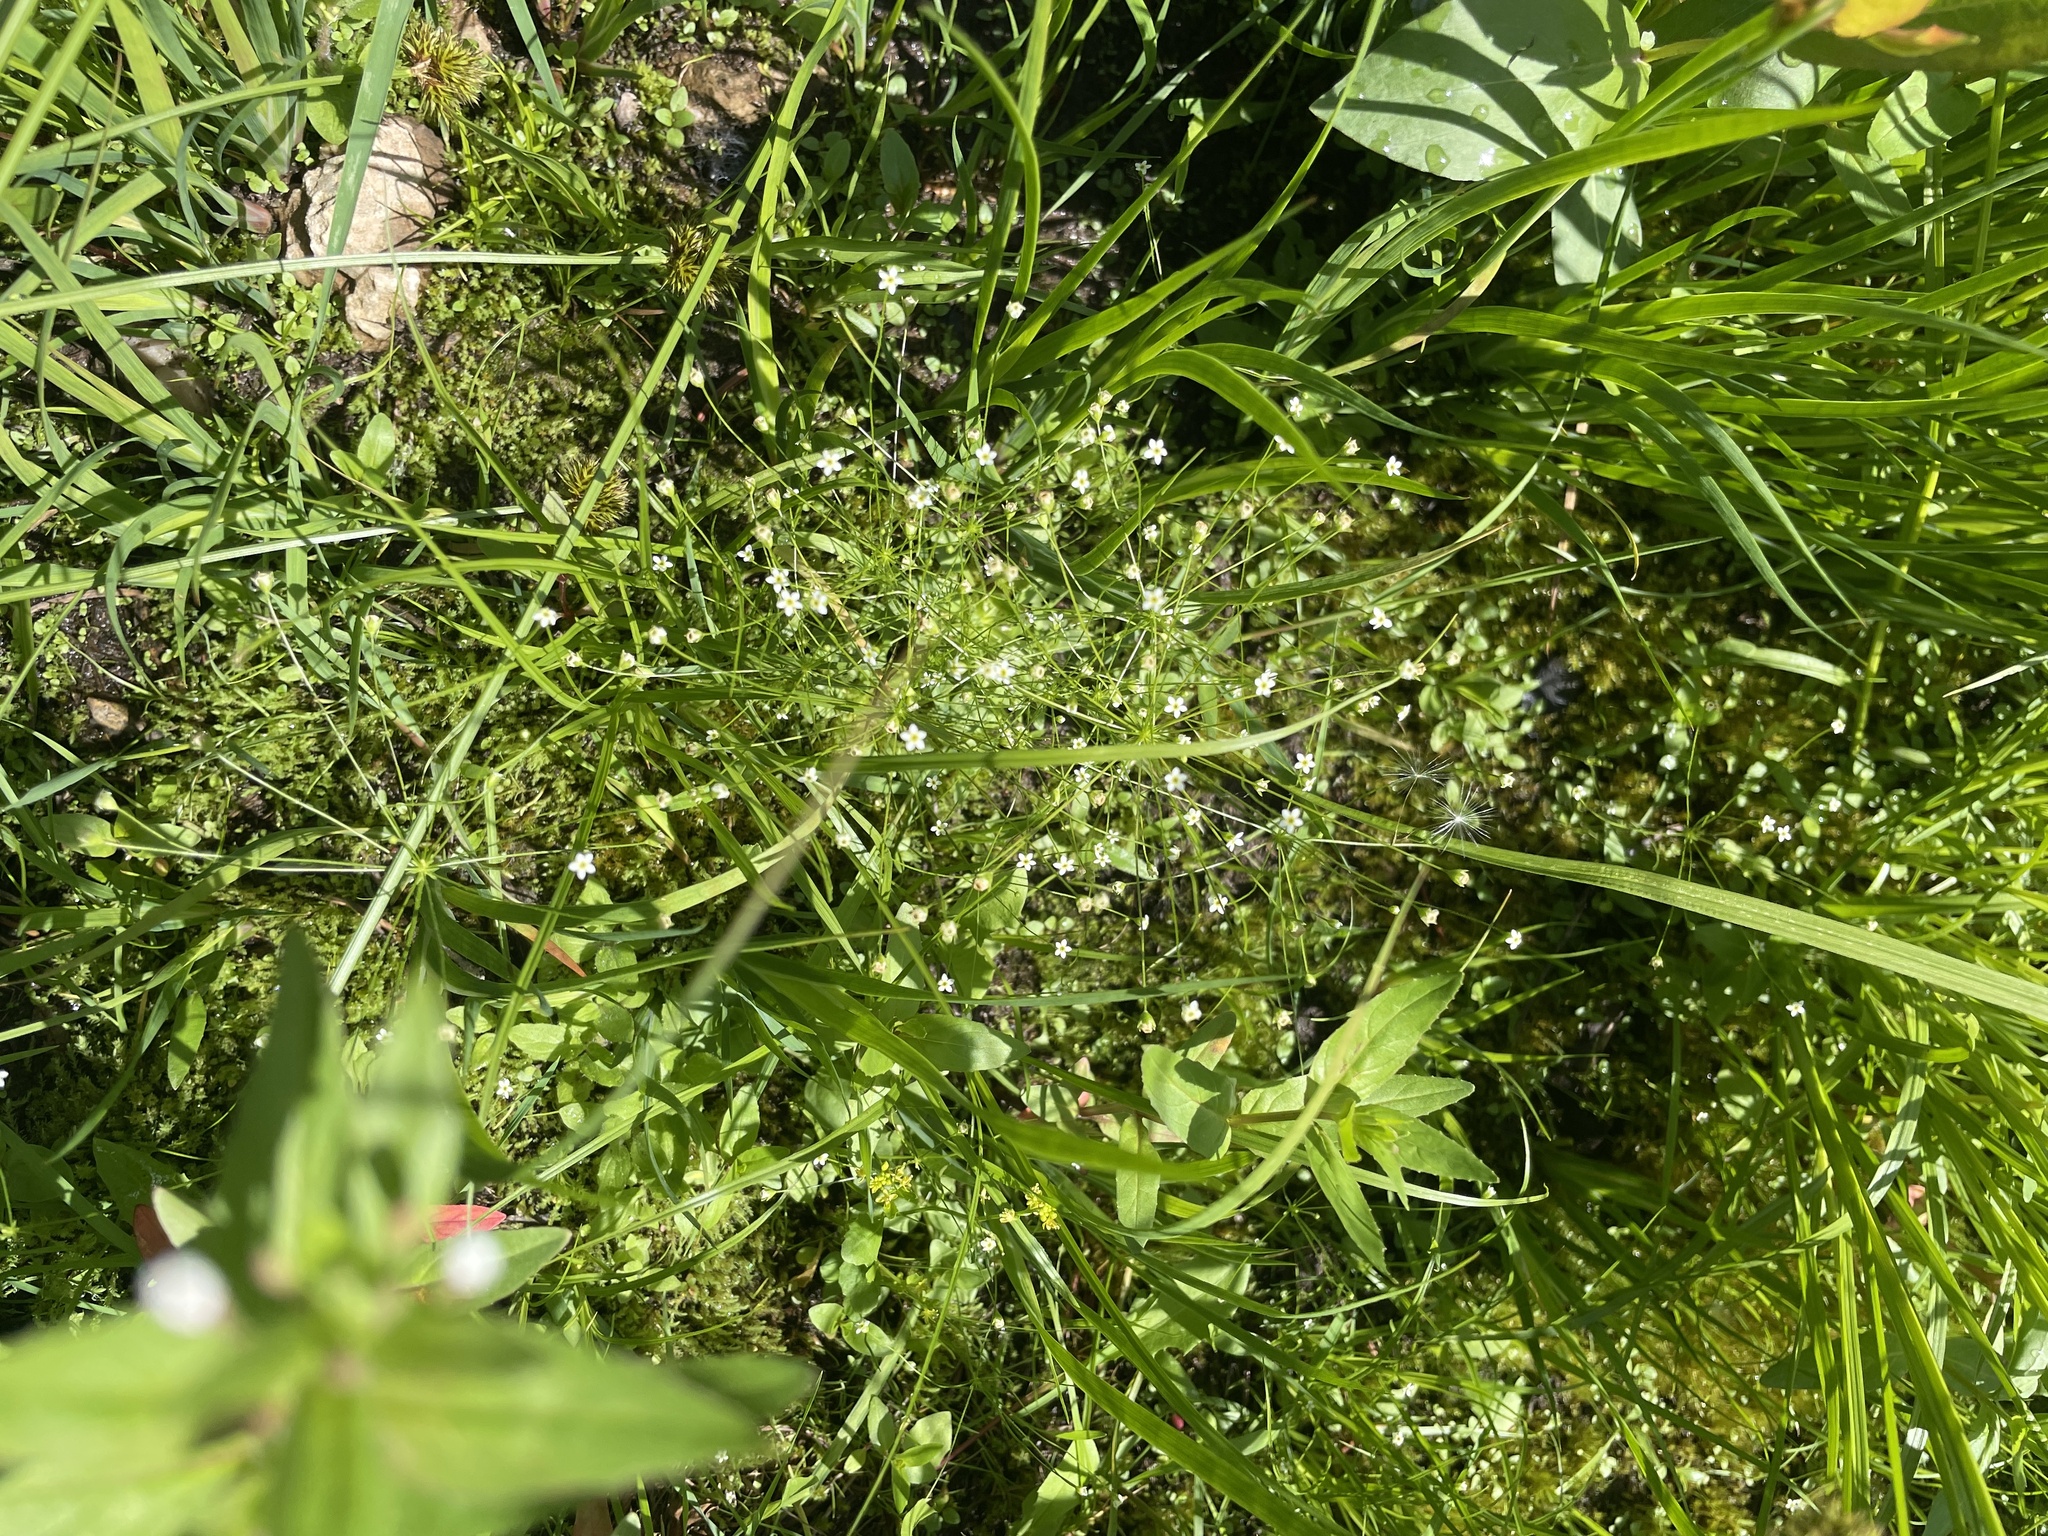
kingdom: Plantae
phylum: Tracheophyta
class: Magnoliopsida
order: Ericales
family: Primulaceae
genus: Androsace
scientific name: Androsace septentrionalis
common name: Hairy northern fairy-candelabra
